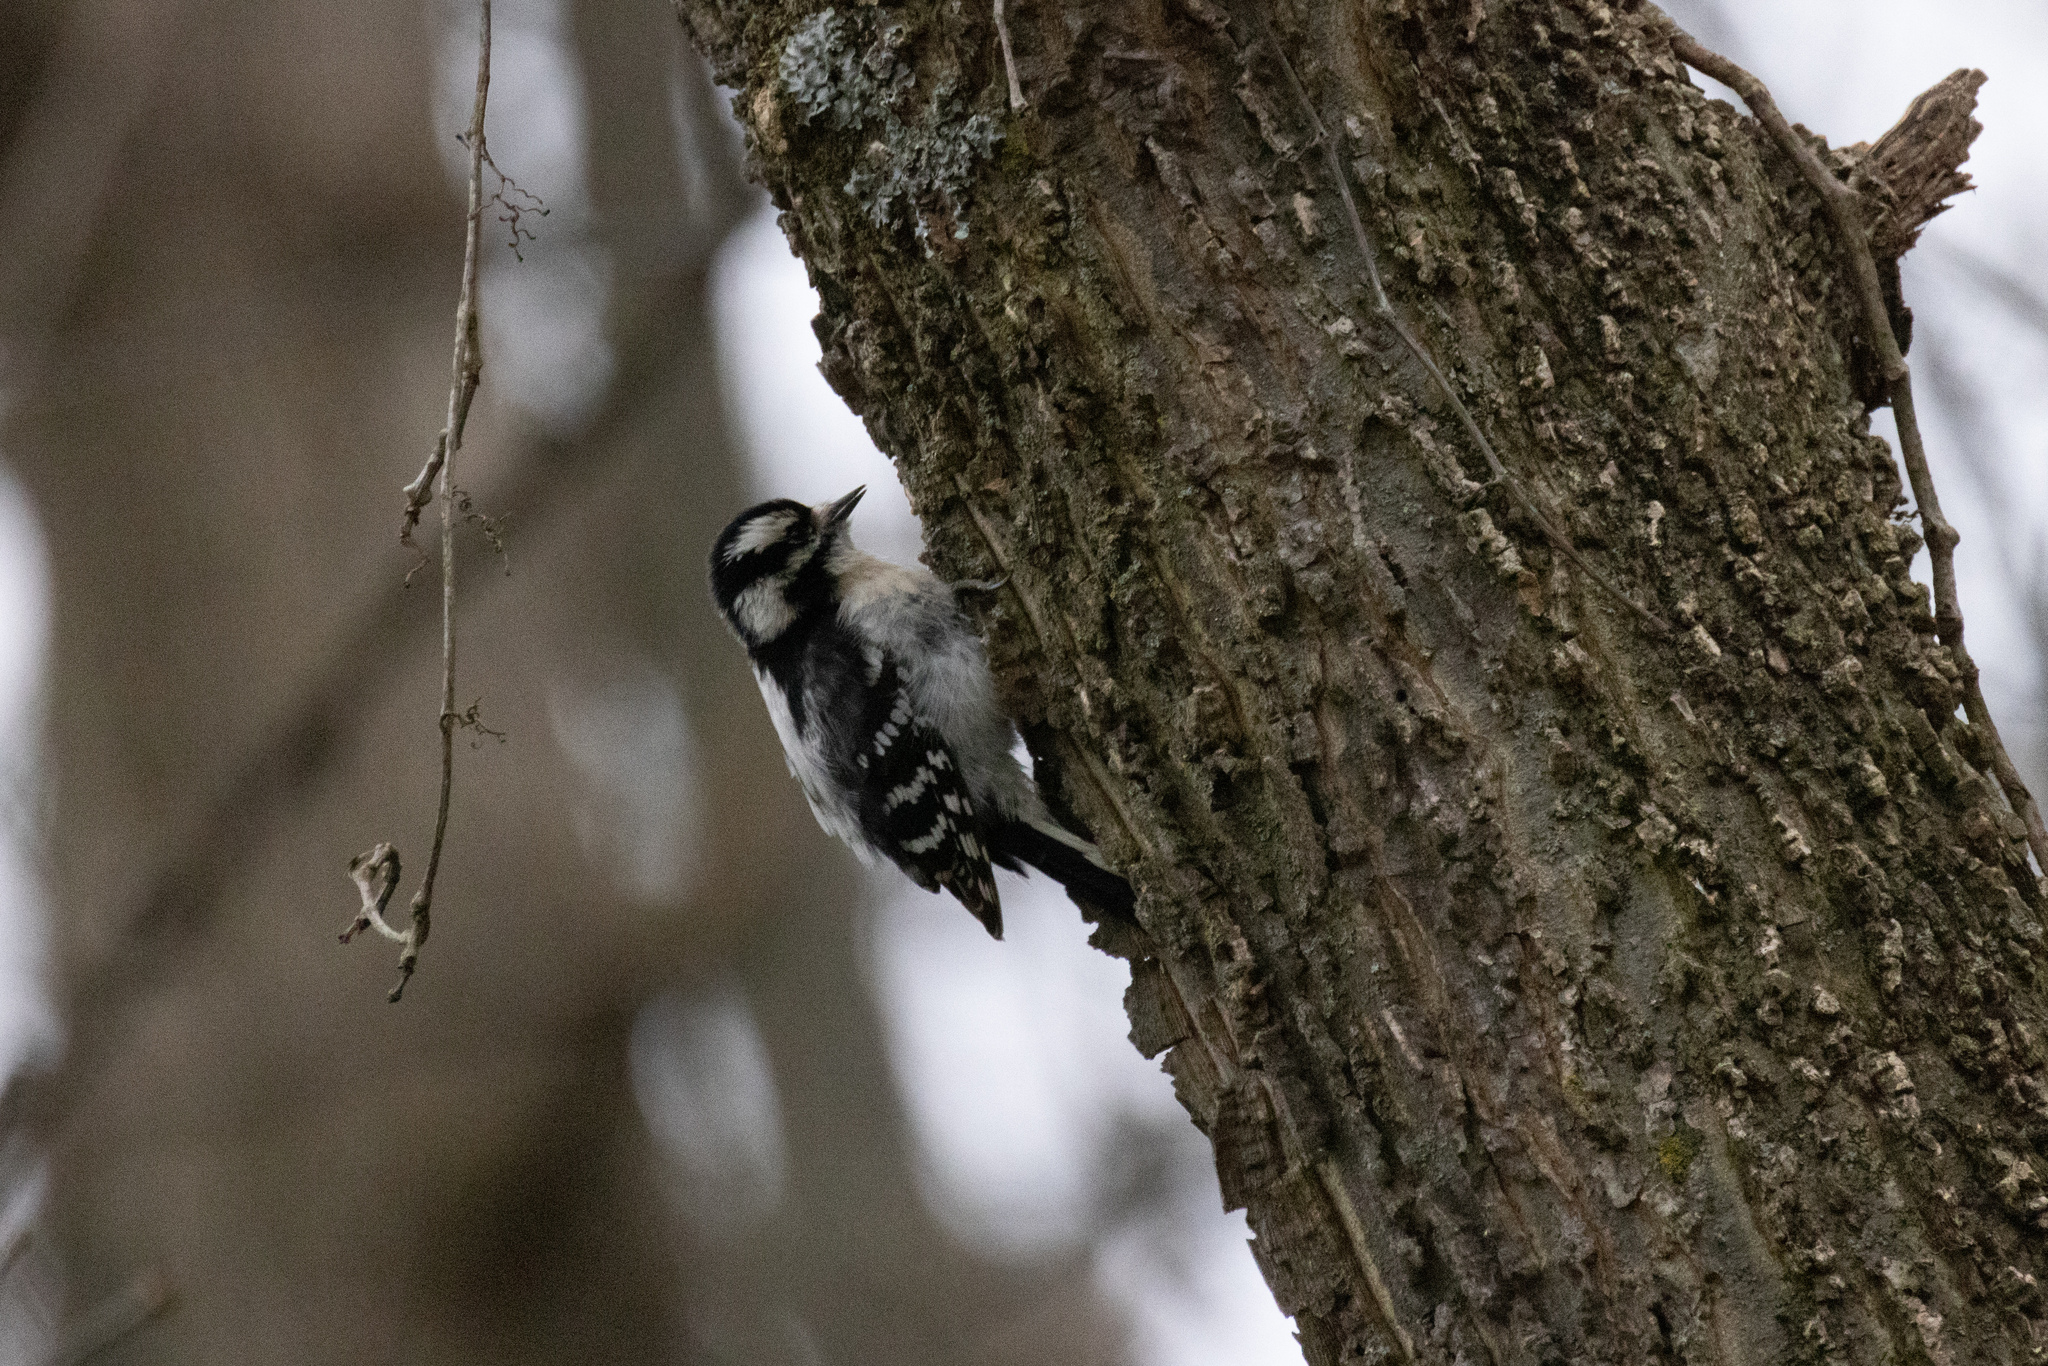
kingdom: Animalia
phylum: Chordata
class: Aves
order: Piciformes
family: Picidae
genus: Dryobates
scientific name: Dryobates pubescens
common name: Downy woodpecker
